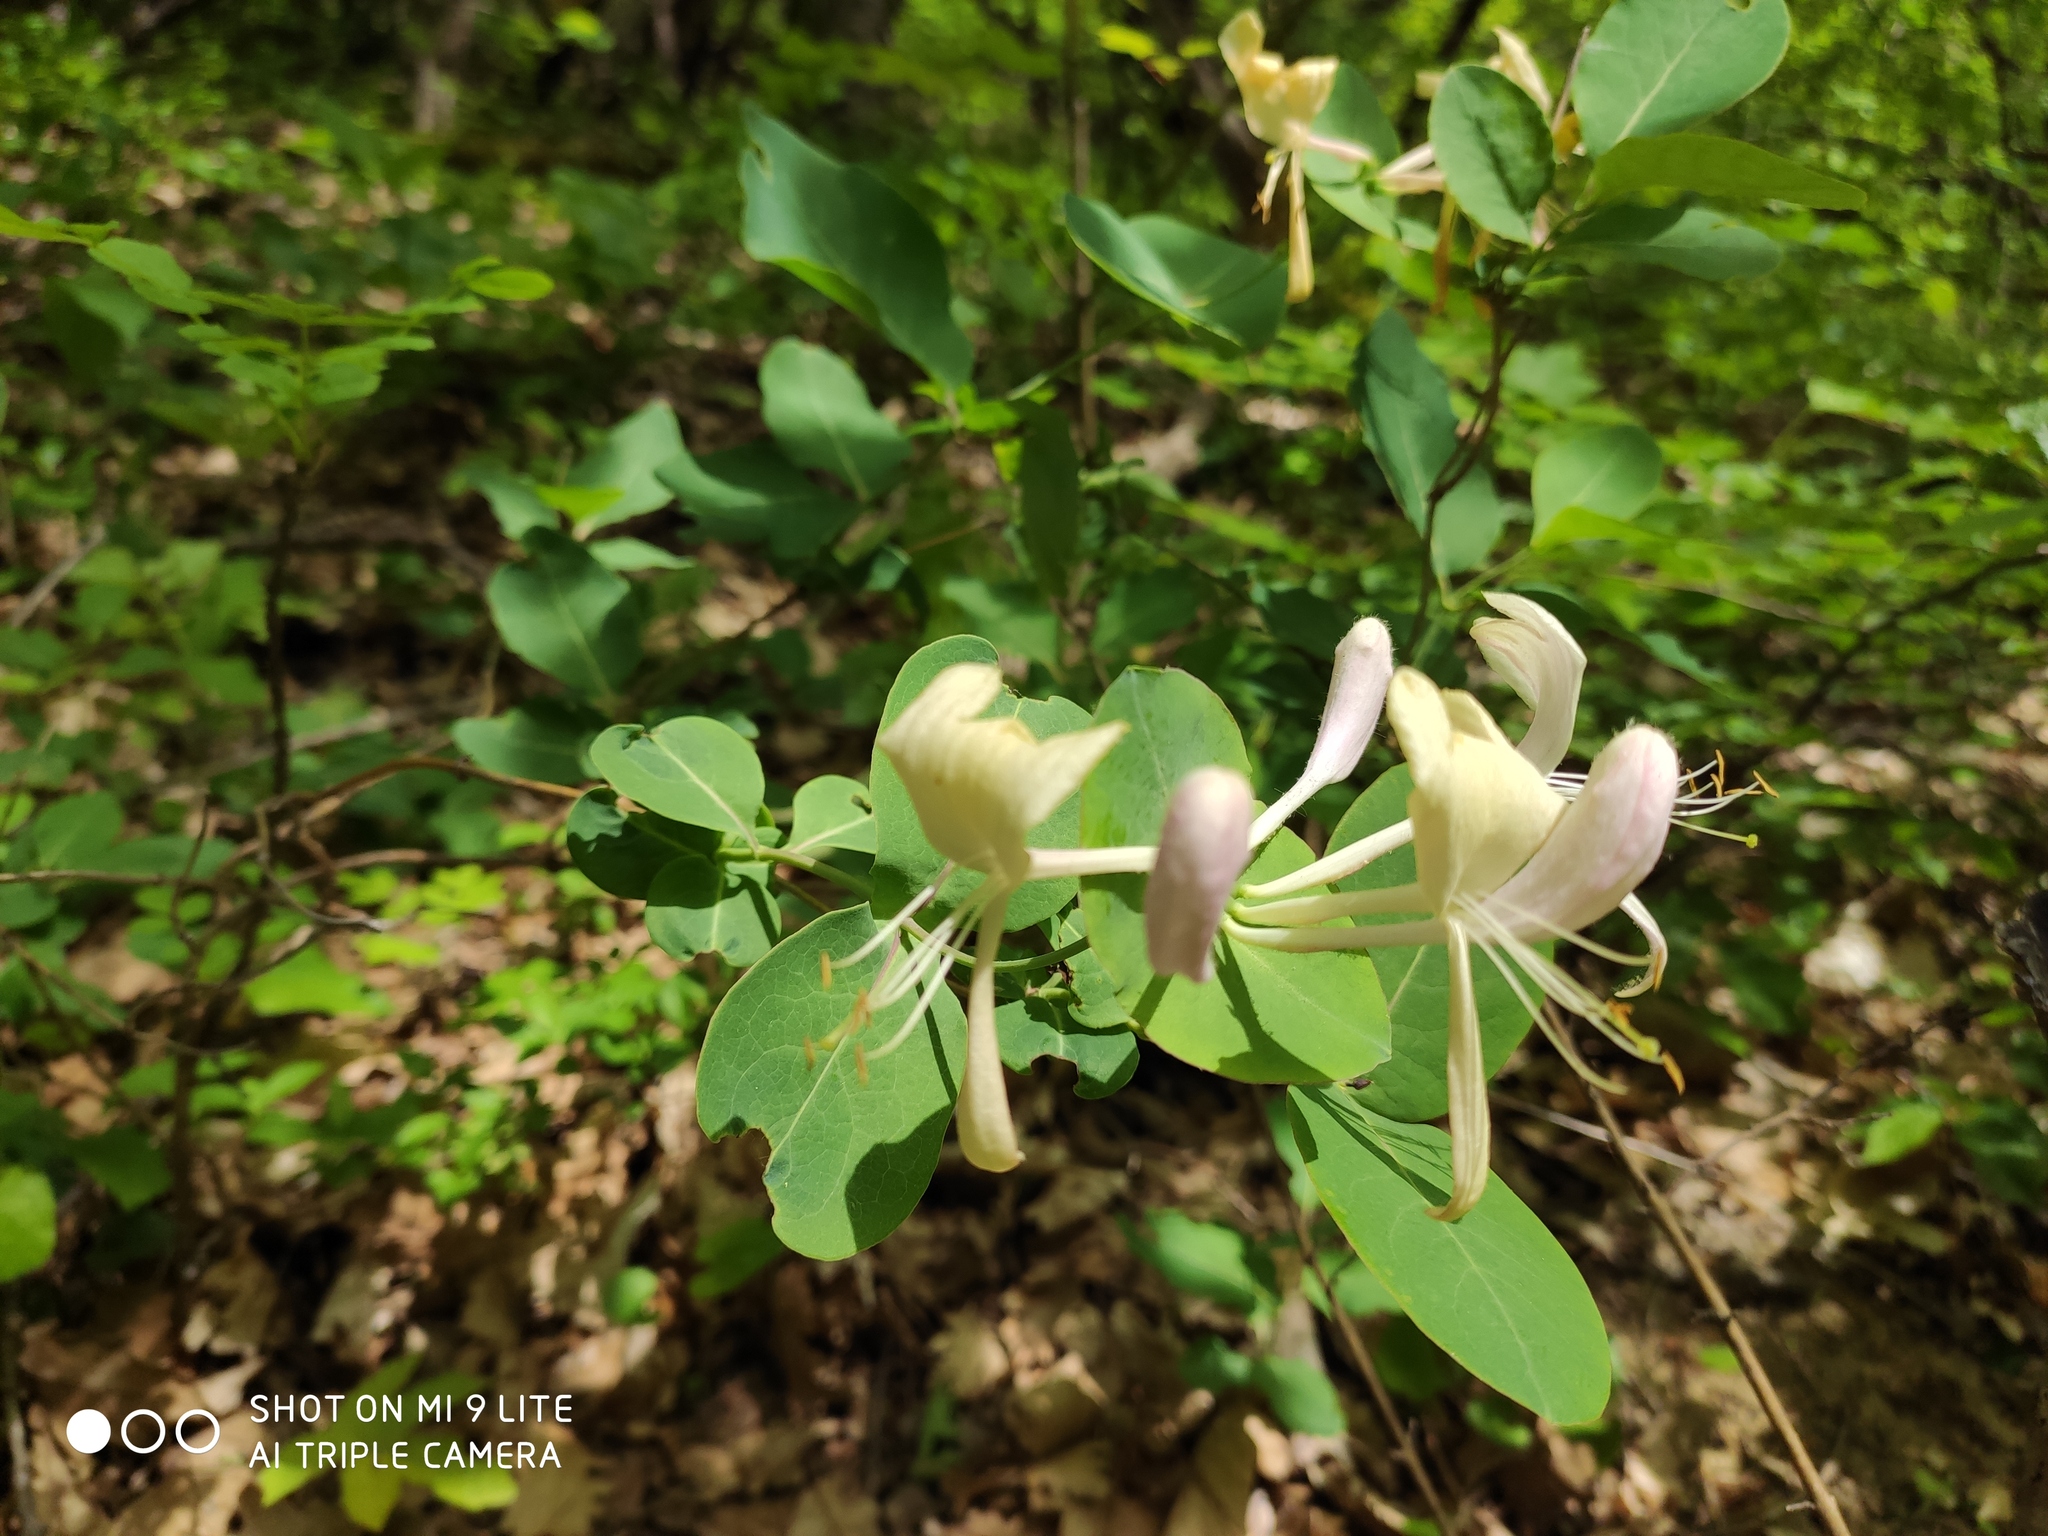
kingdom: Plantae
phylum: Tracheophyta
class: Magnoliopsida
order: Dipsacales
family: Caprifoliaceae
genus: Lonicera
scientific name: Lonicera caprifolium
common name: Perfoliate honeysuckle
